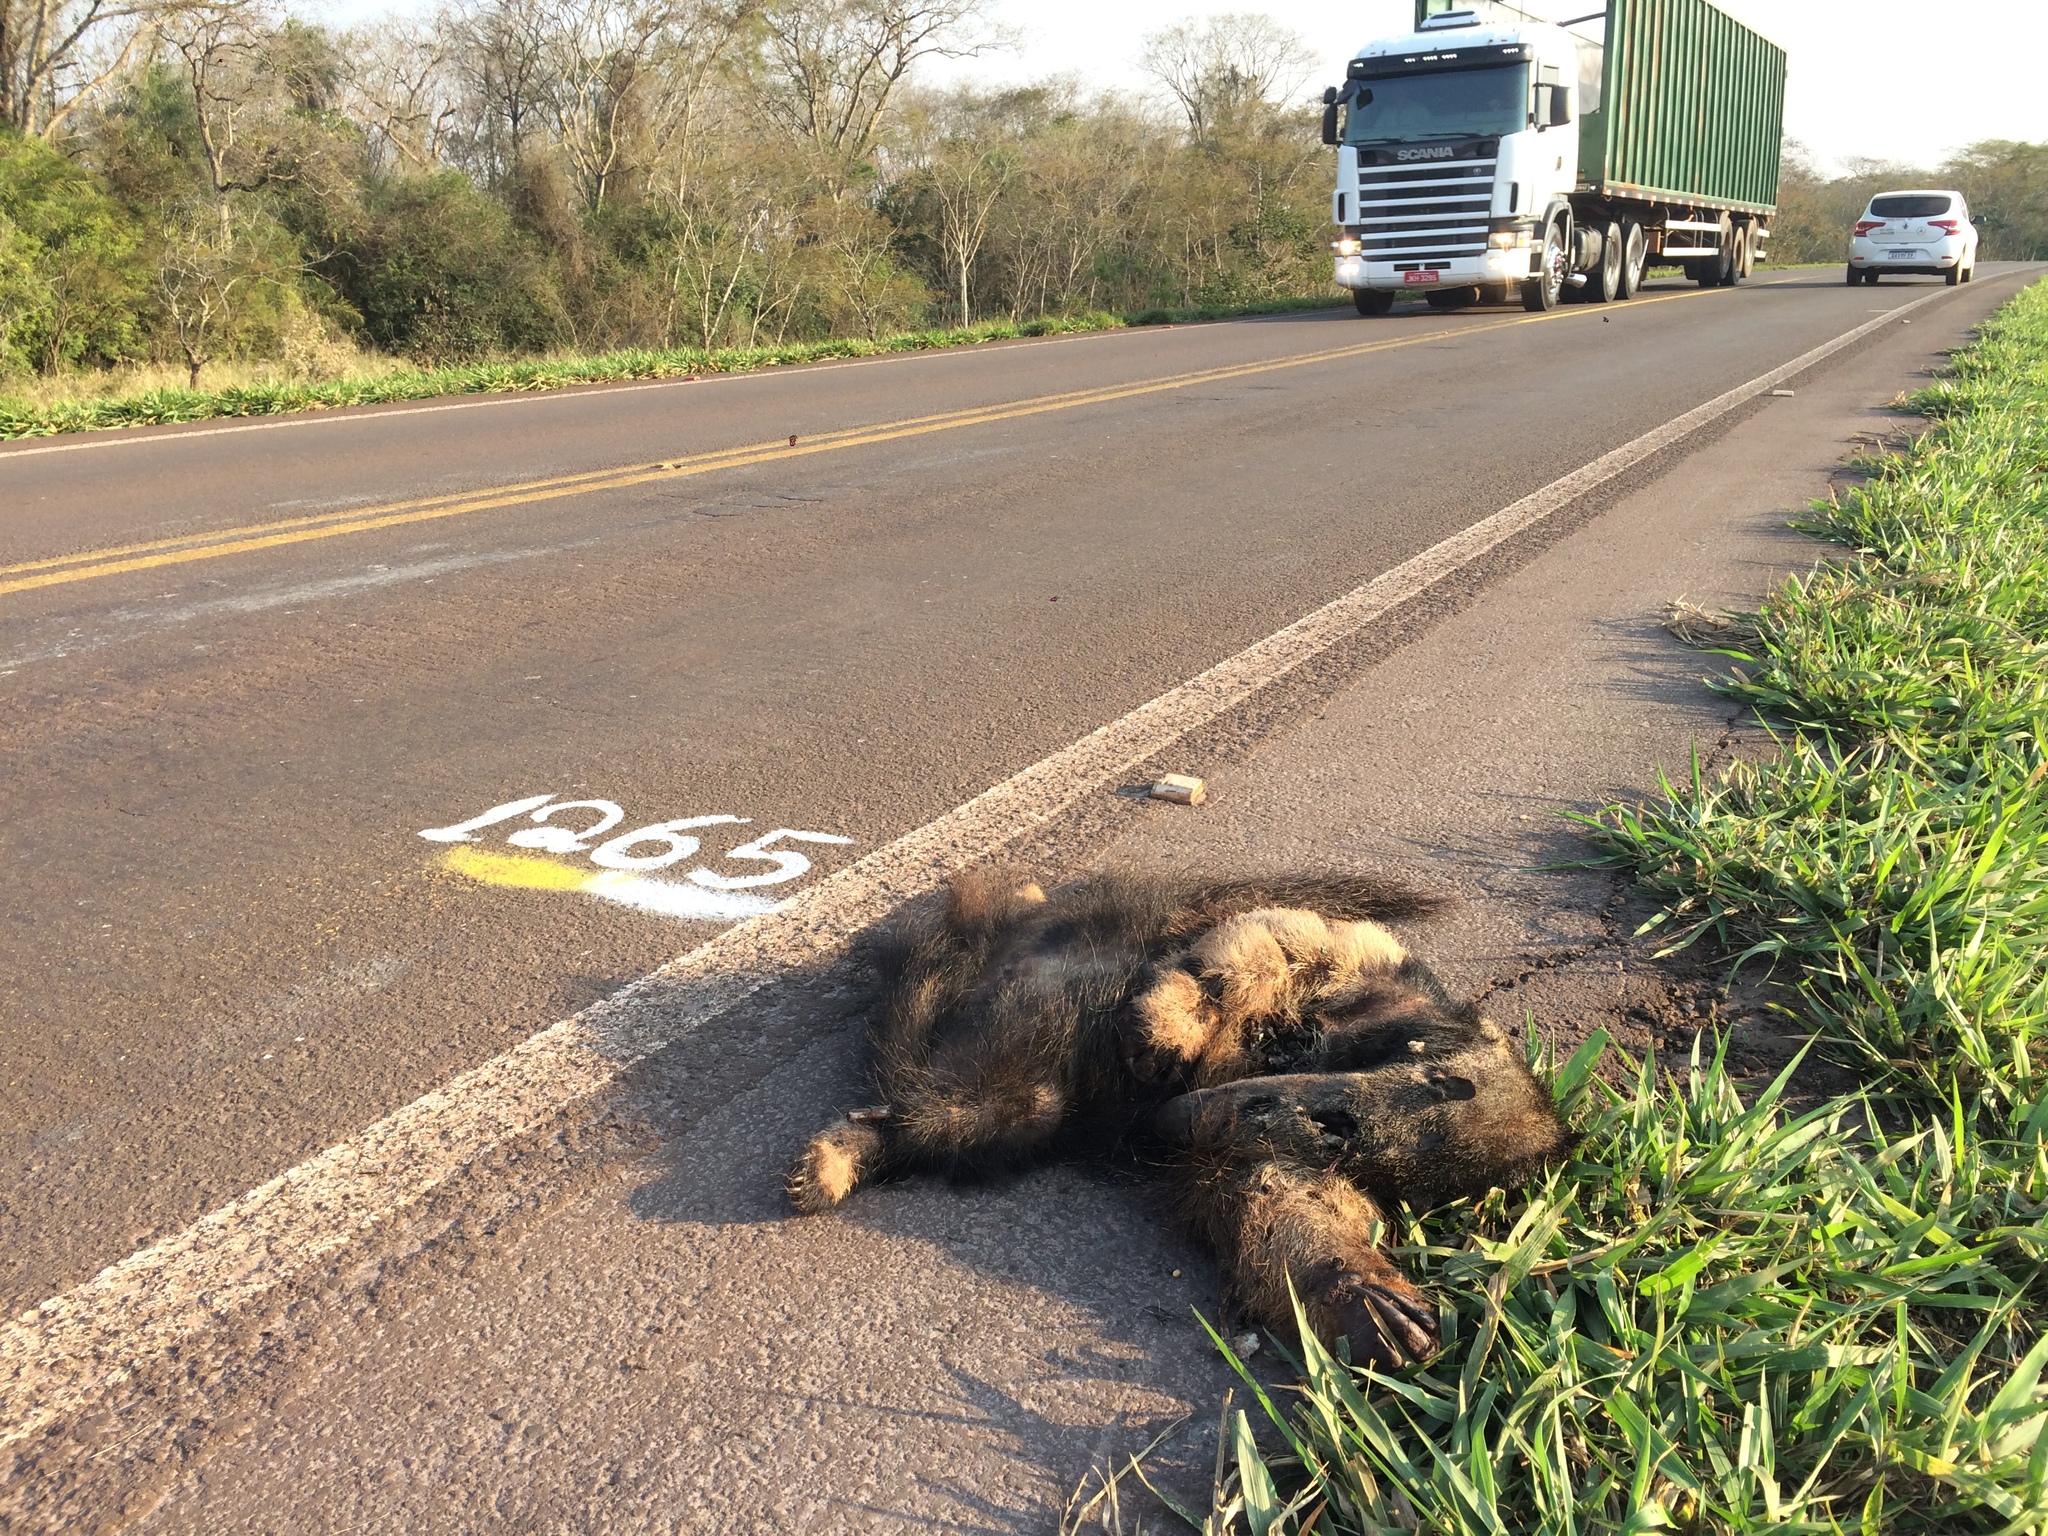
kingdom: Animalia
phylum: Chordata
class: Mammalia
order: Pilosa
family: Myrmecophagidae
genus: Myrmecophaga
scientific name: Myrmecophaga tridactyla
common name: Giant anteater
